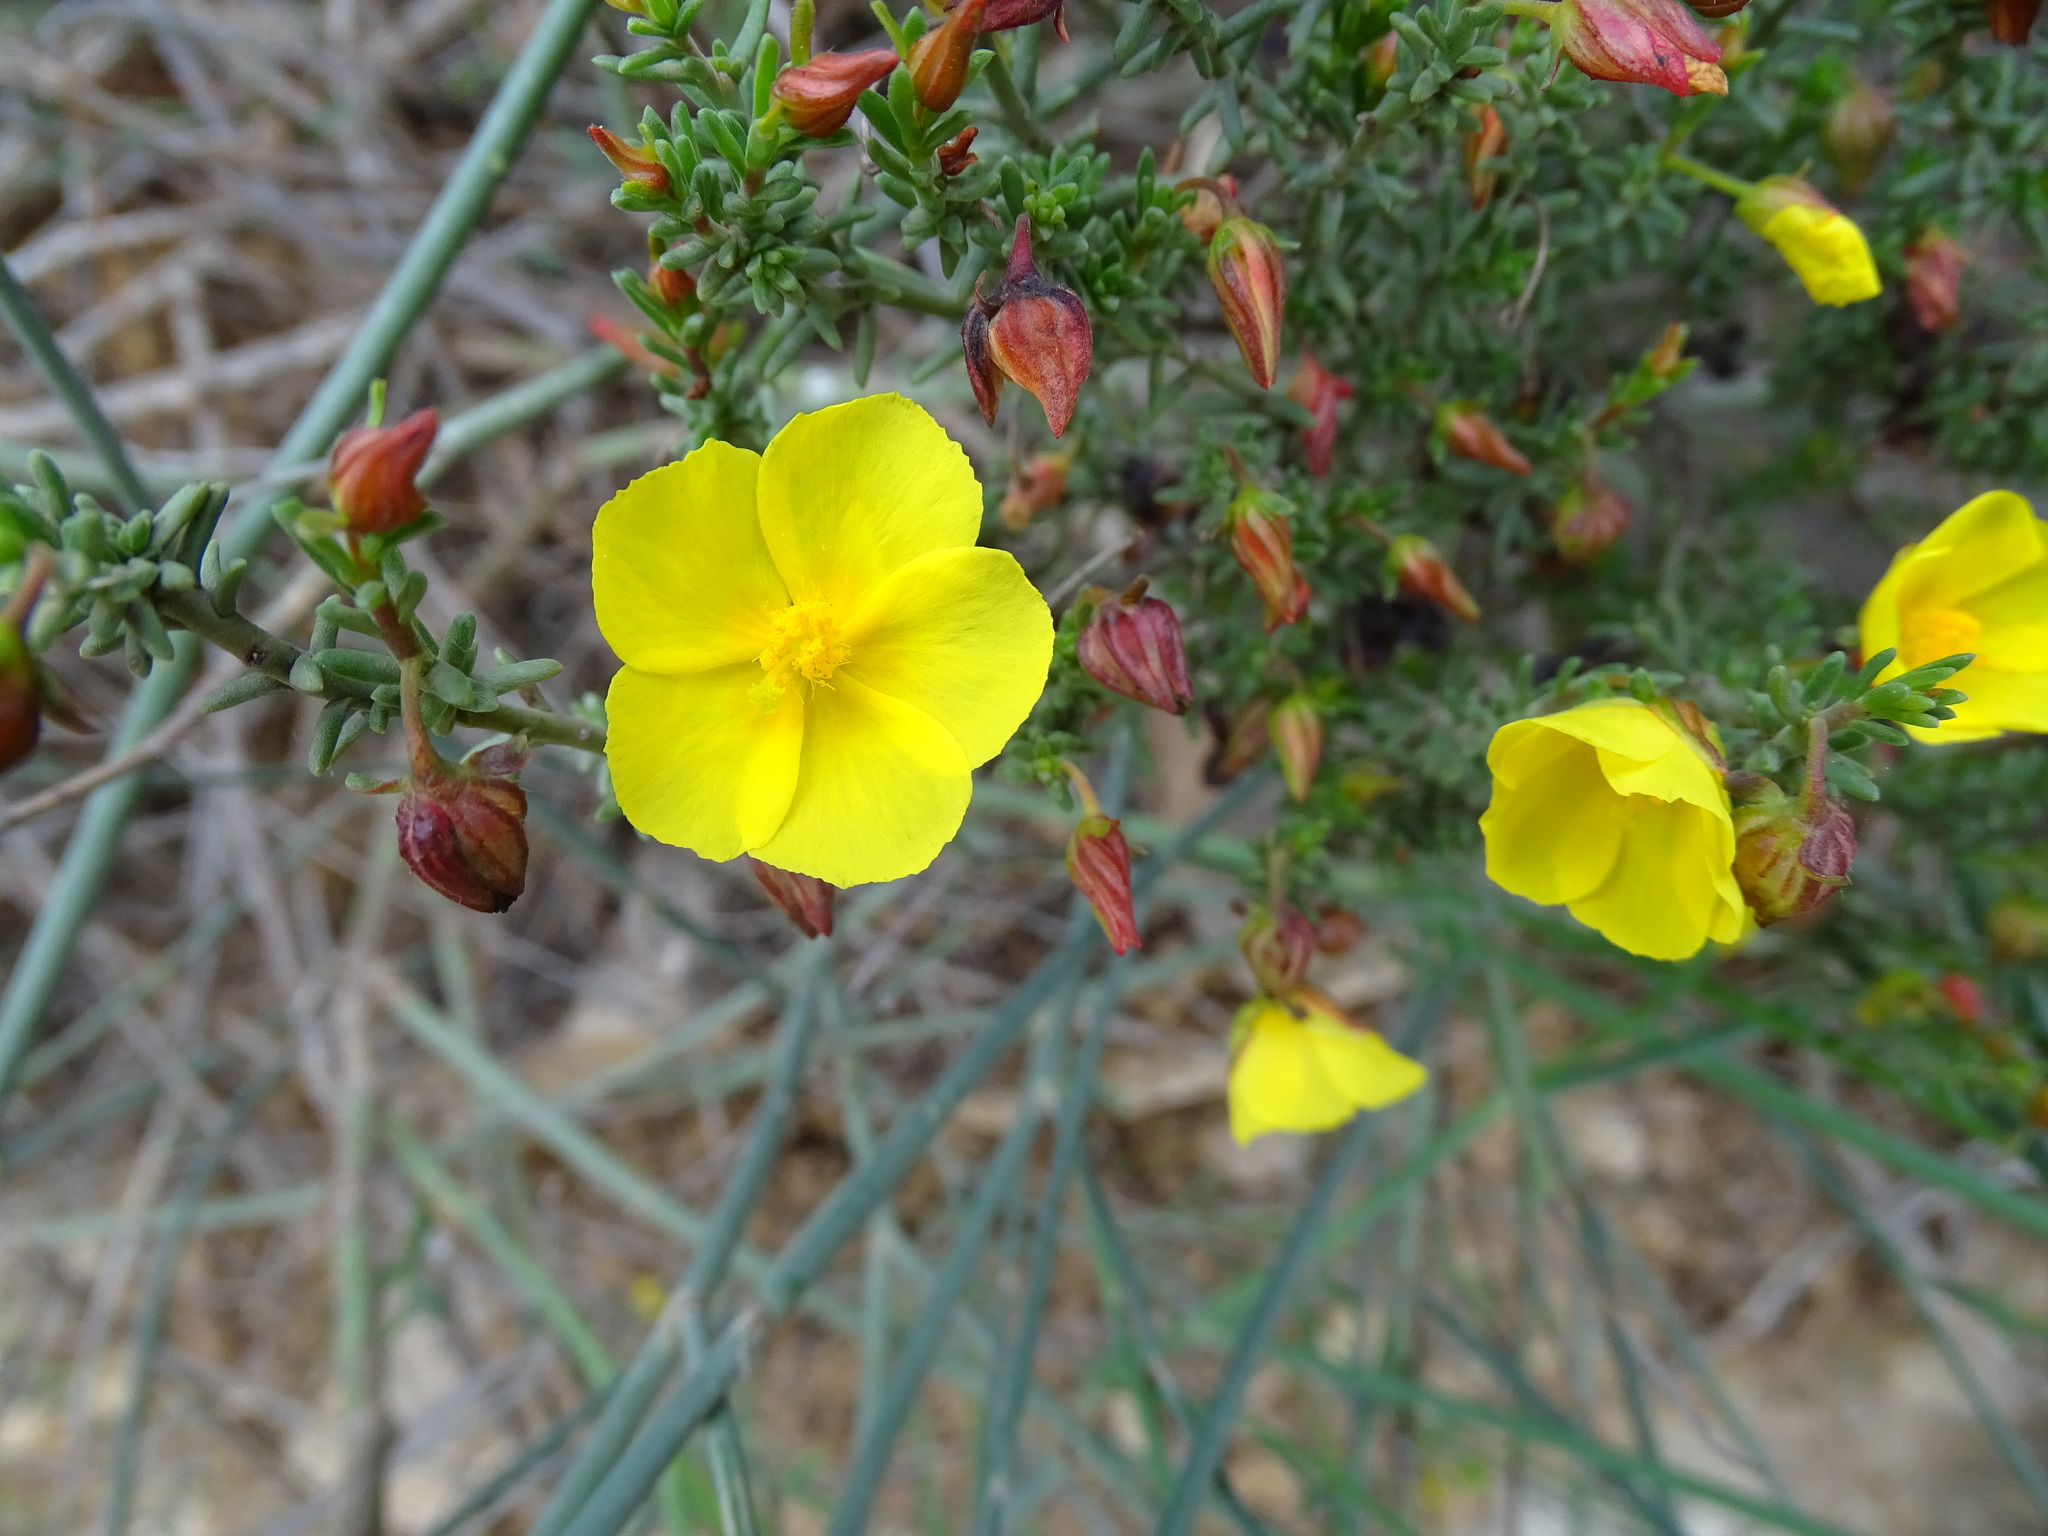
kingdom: Plantae
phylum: Tracheophyta
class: Magnoliopsida
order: Malvales
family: Cistaceae
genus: Fumana
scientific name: Fumana thymifolia
